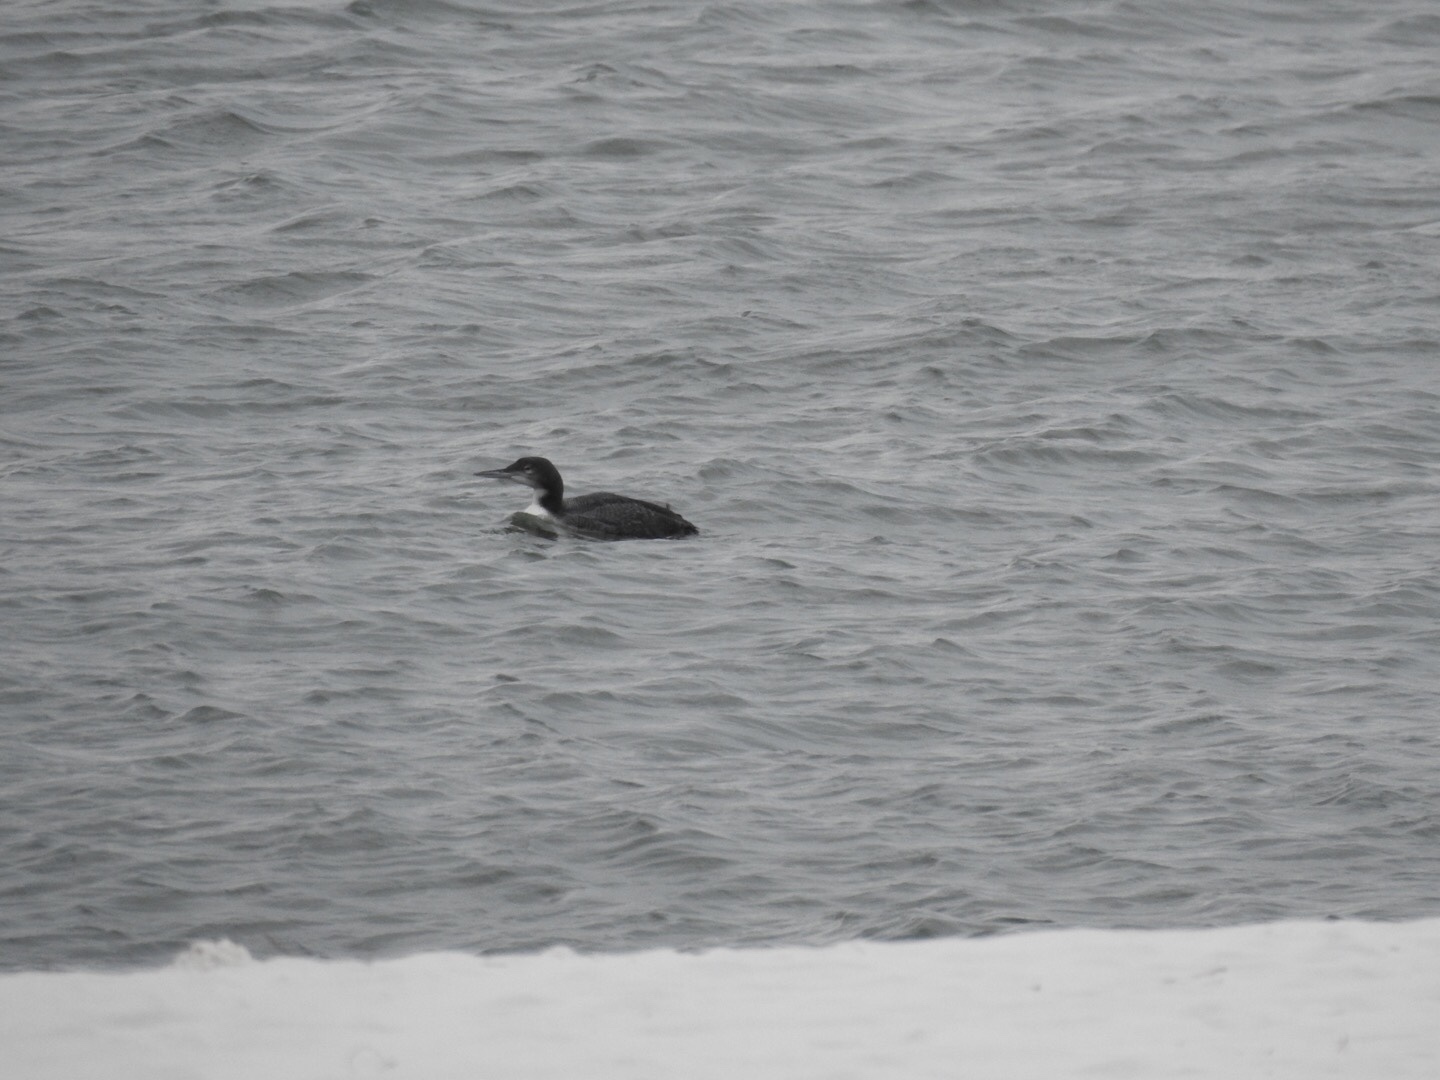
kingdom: Animalia
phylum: Chordata
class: Aves
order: Gaviiformes
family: Gaviidae
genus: Gavia
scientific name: Gavia immer
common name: Common loon
